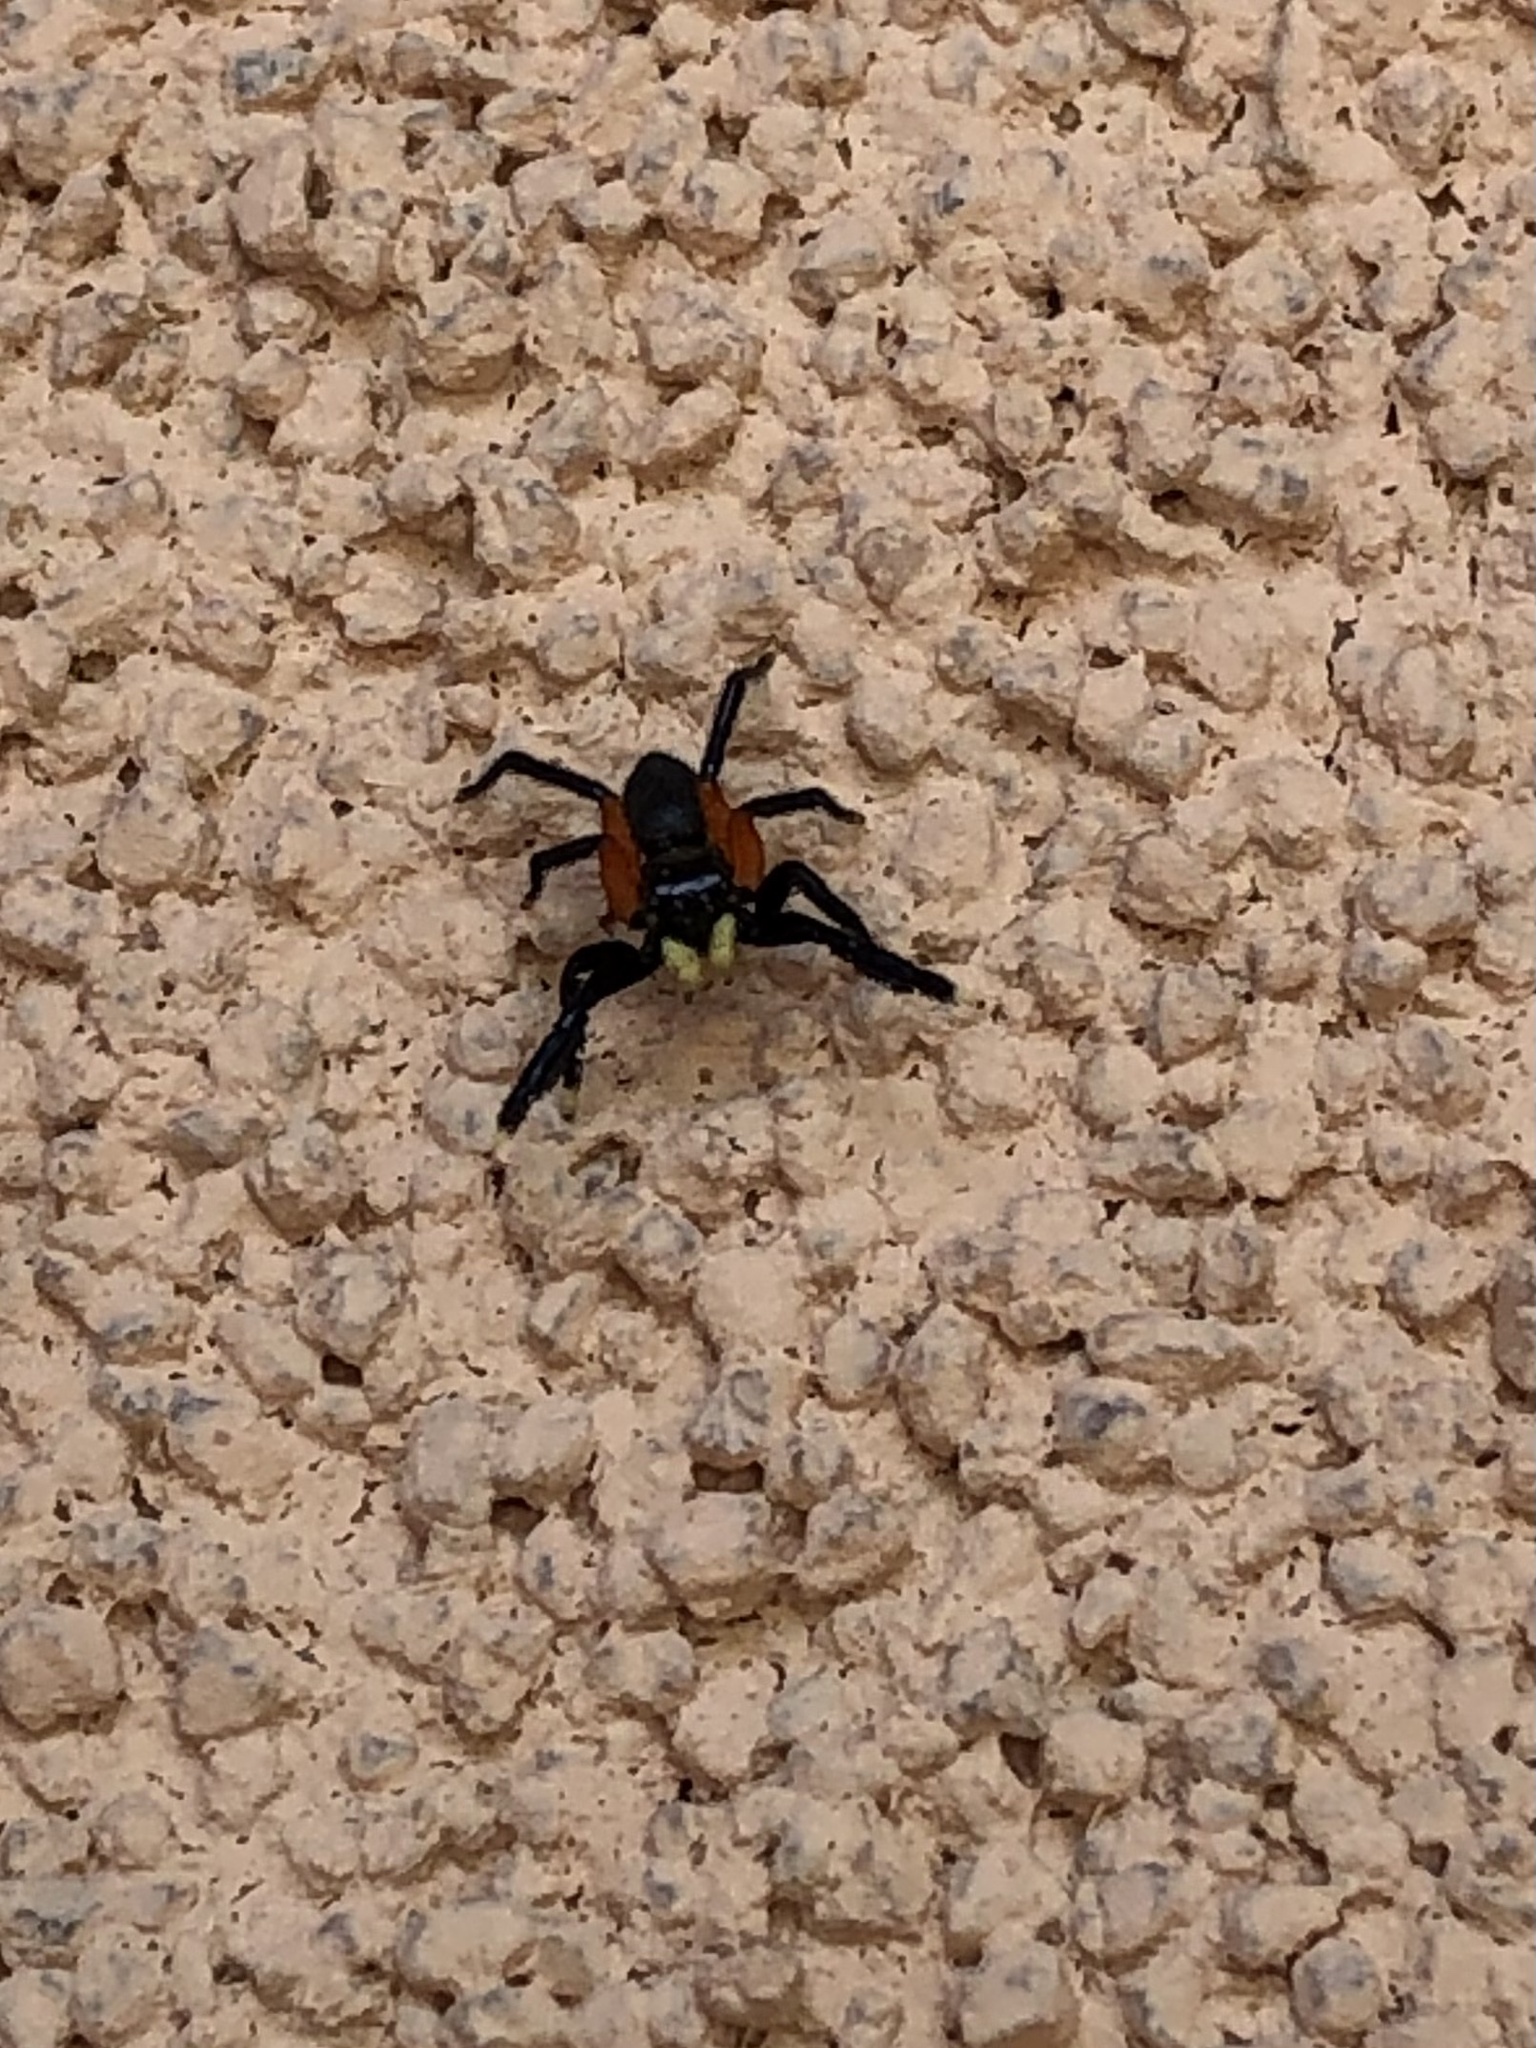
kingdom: Animalia
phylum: Arthropoda
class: Arachnida
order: Araneae
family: Salticidae
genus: Euophrys
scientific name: Euophrys monadnock
